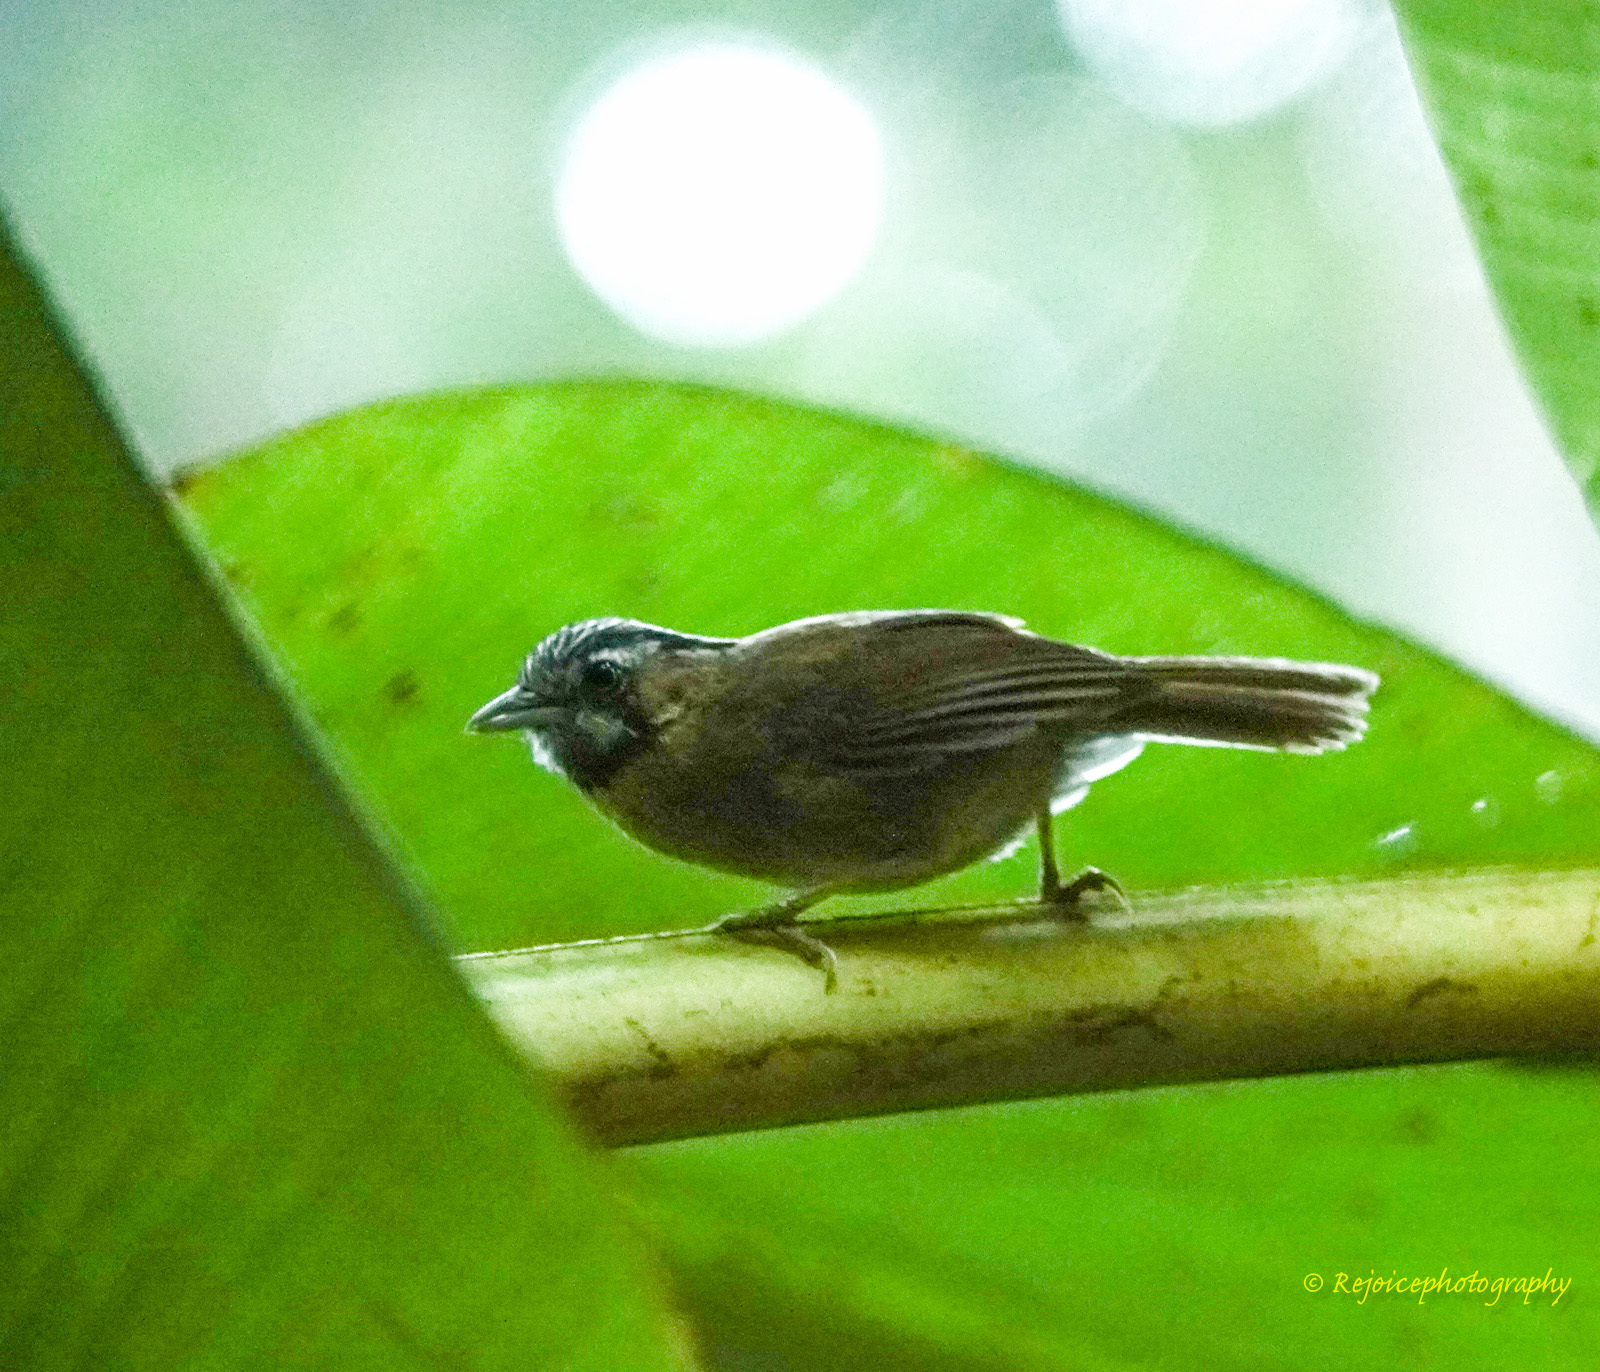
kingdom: Animalia
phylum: Chordata
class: Aves
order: Passeriformes
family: Timaliidae
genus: Stachyris
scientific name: Stachyris nigriceps
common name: Grey-throated babbler
